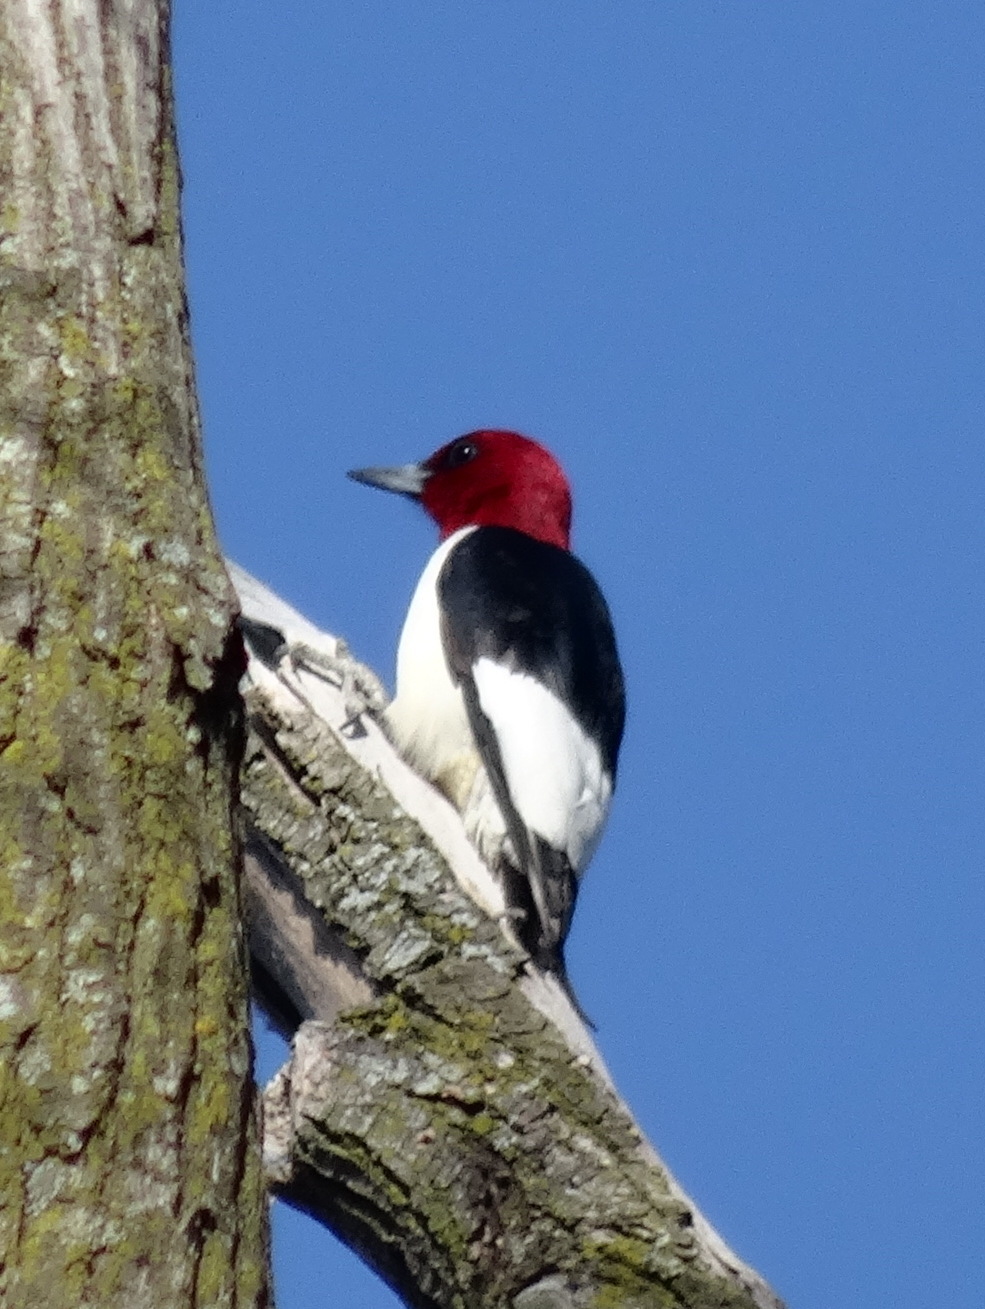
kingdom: Animalia
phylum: Chordata
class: Aves
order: Piciformes
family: Picidae
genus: Melanerpes
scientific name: Melanerpes erythrocephalus
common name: Red-headed woodpecker
